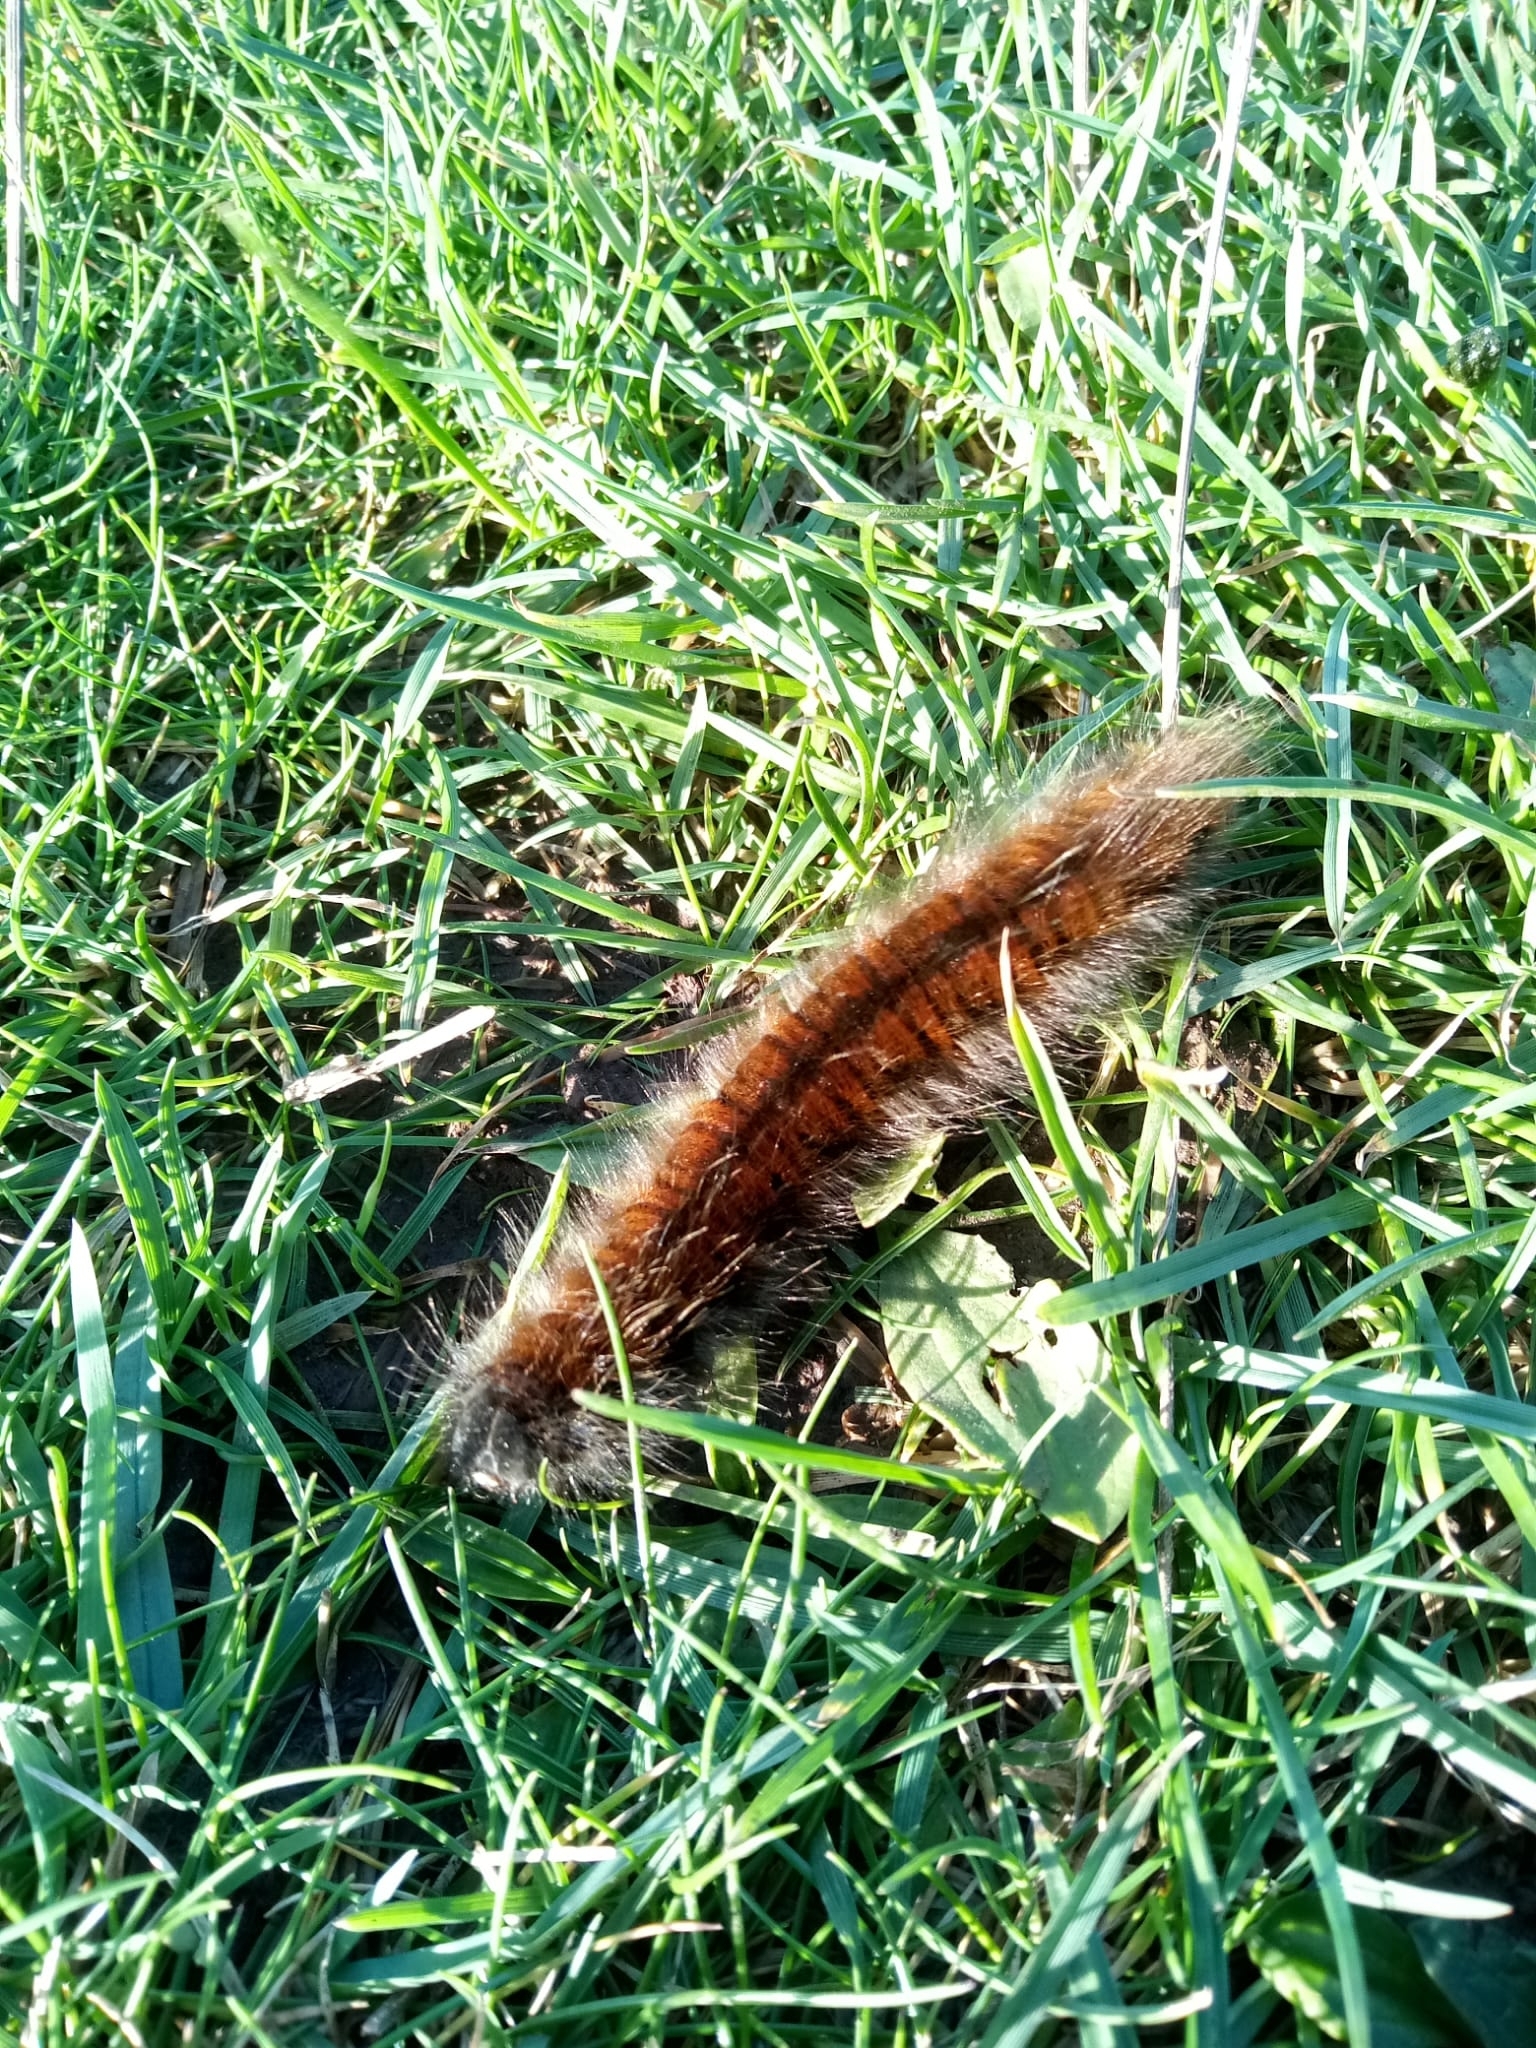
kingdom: Animalia
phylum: Arthropoda
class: Insecta
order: Lepidoptera
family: Lasiocampidae
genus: Macrothylacia
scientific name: Macrothylacia rubi
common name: Fox moth
